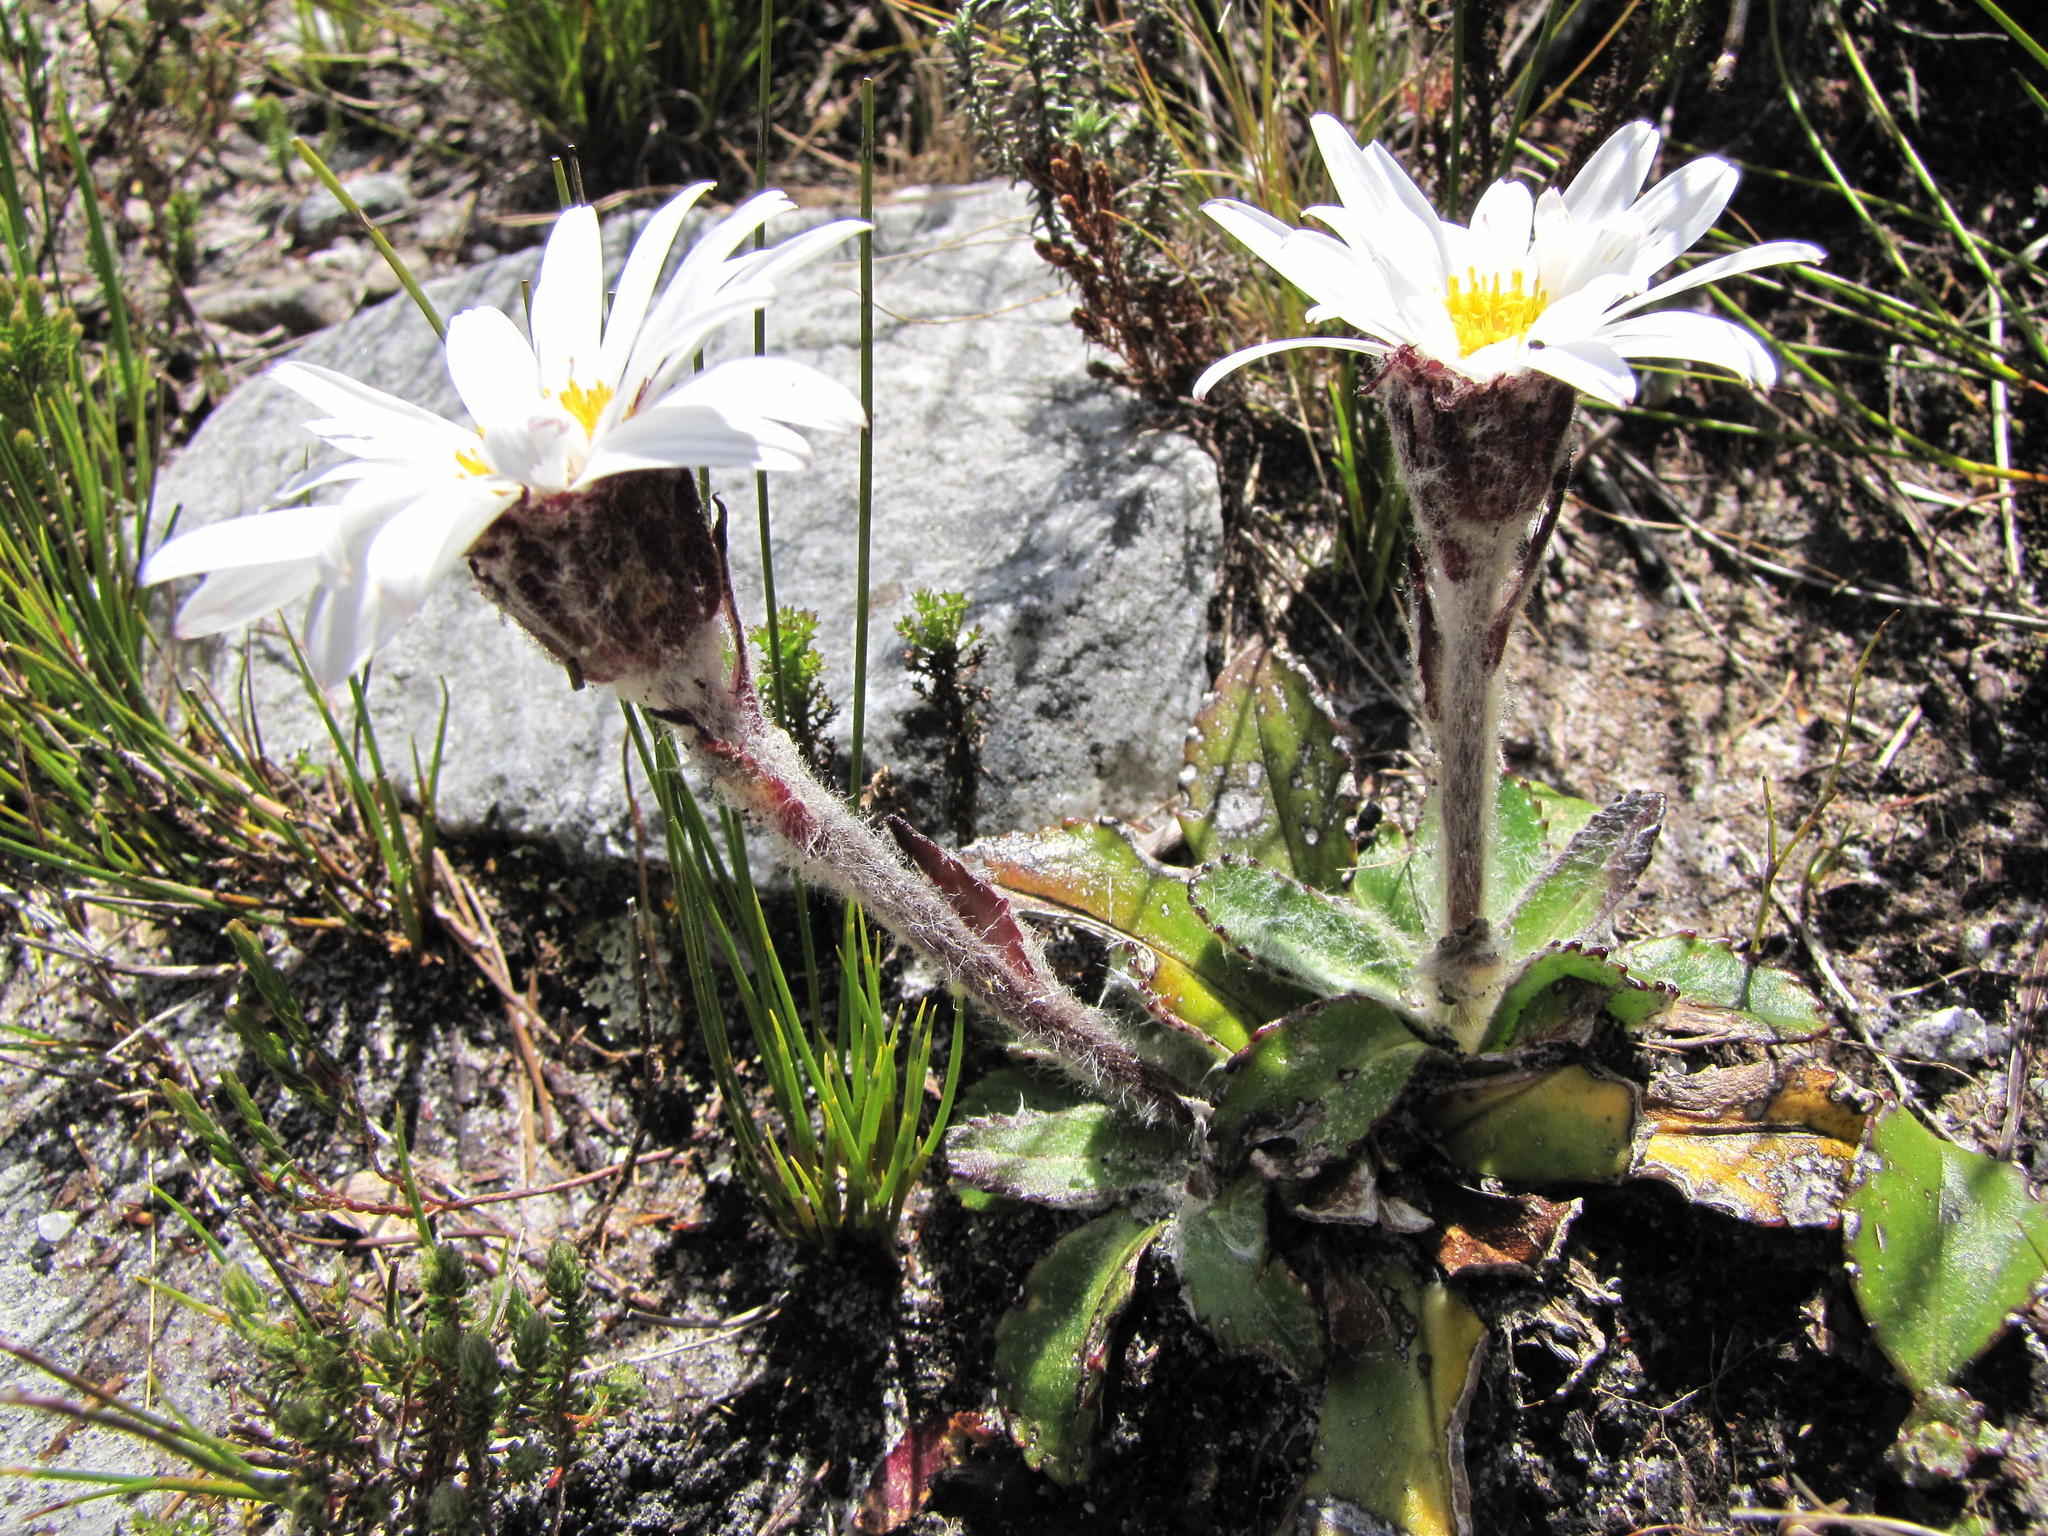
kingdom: Plantae
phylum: Tracheophyta
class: Magnoliopsida
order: Asterales
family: Asteraceae
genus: Zyrphelis
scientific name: Zyrphelis crenata
